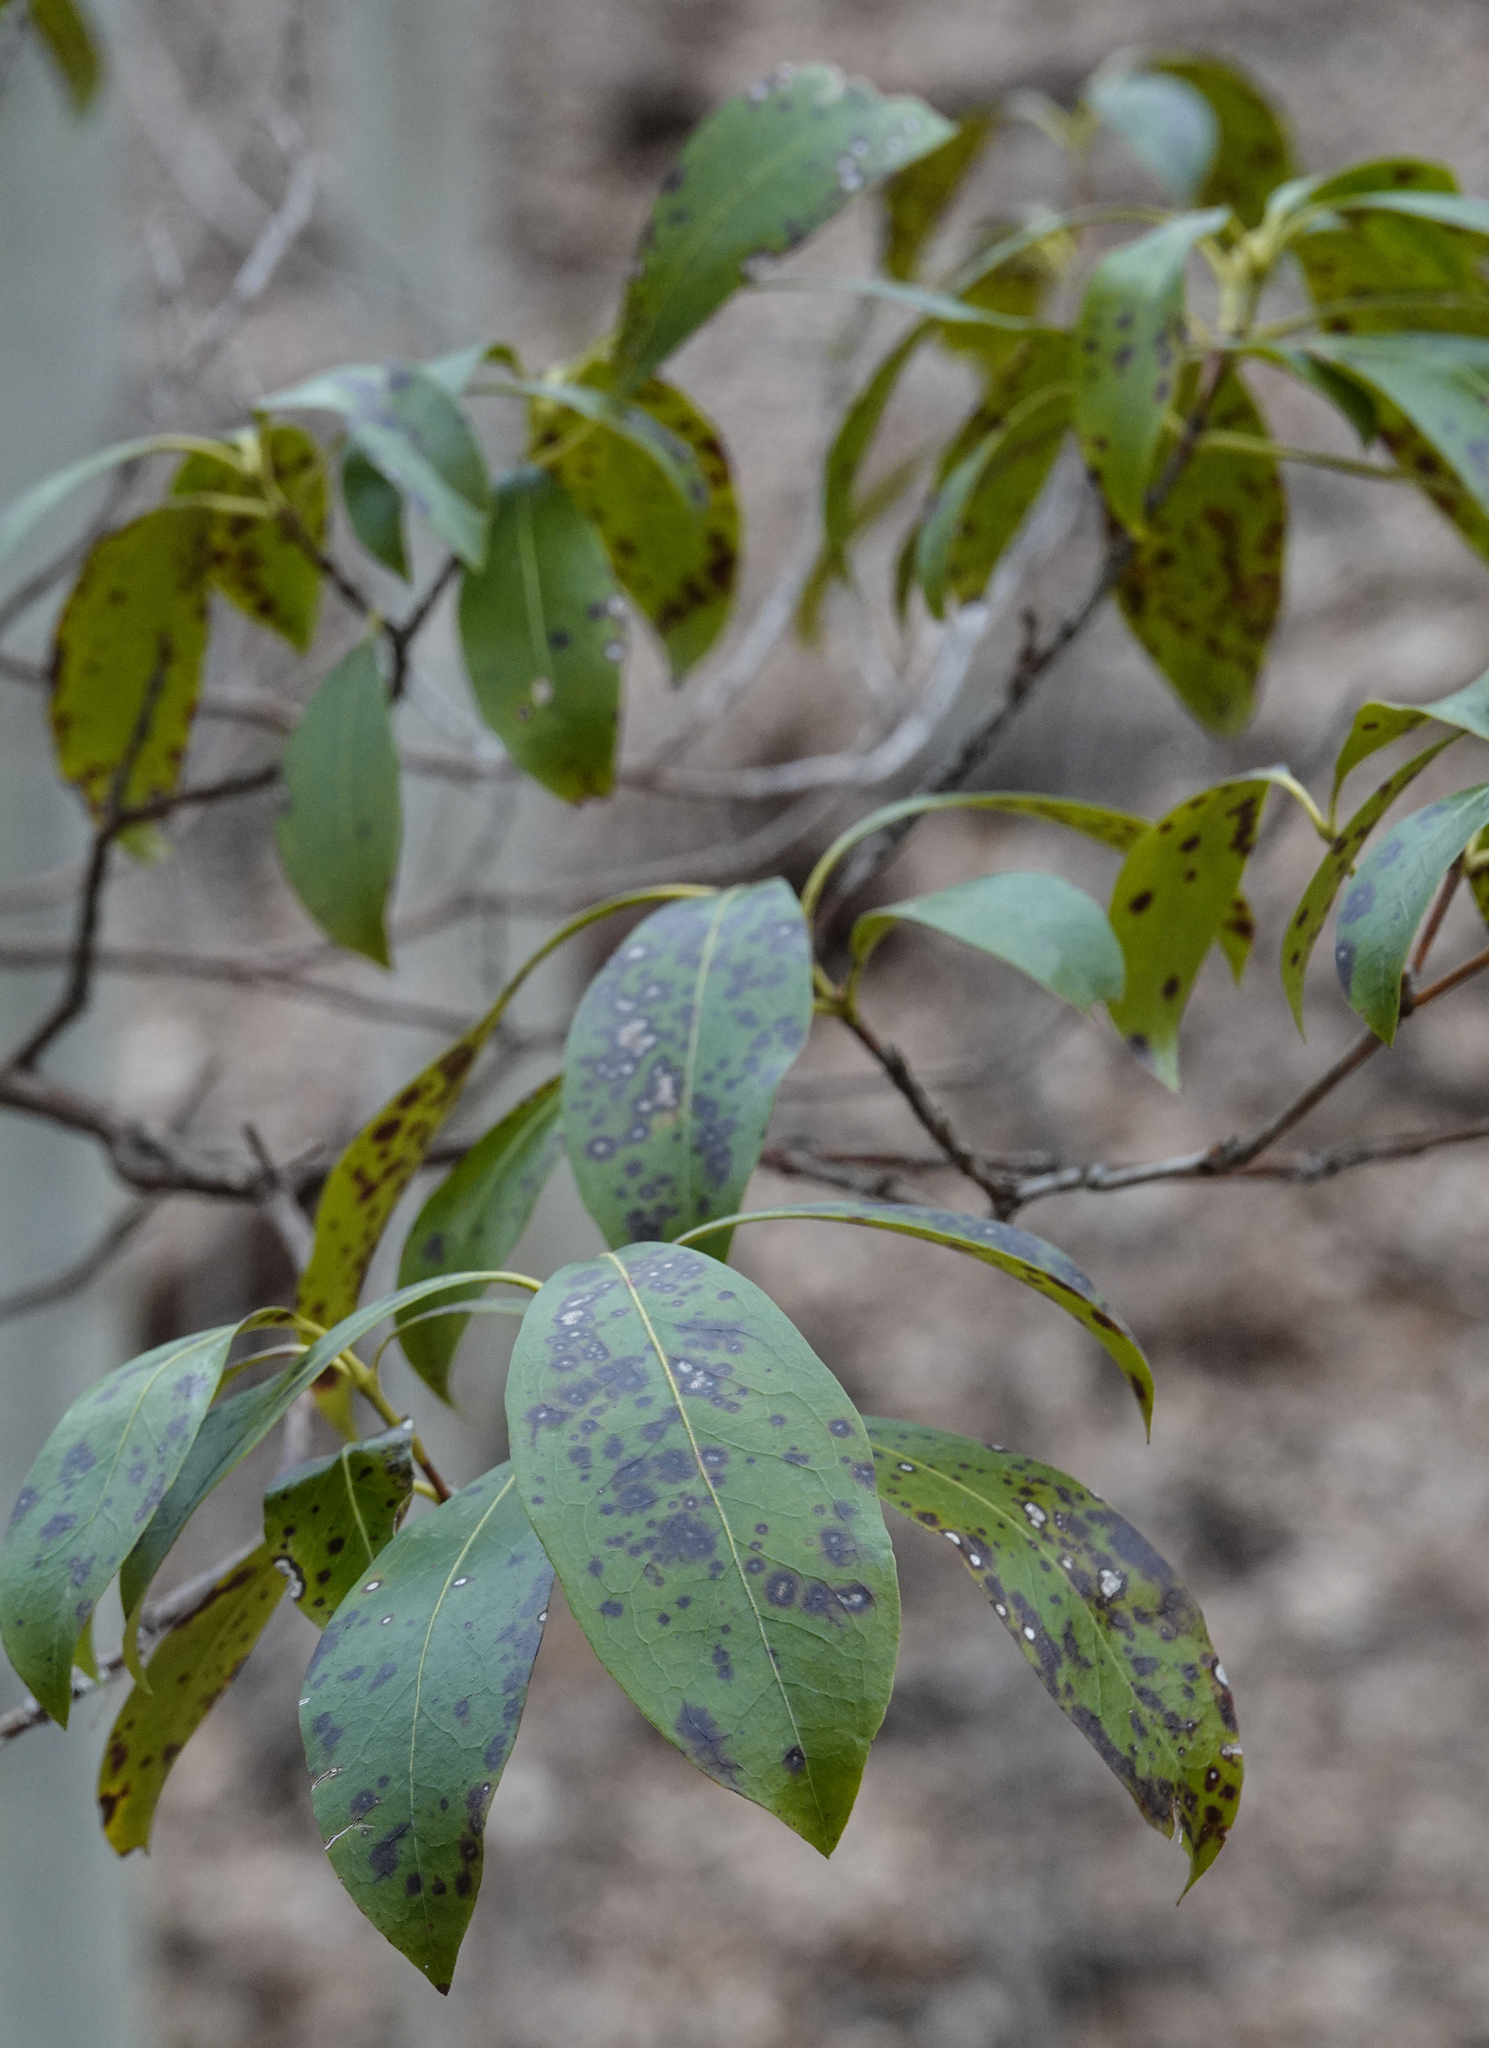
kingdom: Plantae
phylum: Tracheophyta
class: Magnoliopsida
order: Ericales
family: Ericaceae
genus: Kalmia
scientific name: Kalmia latifolia
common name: Mountain-laurel
